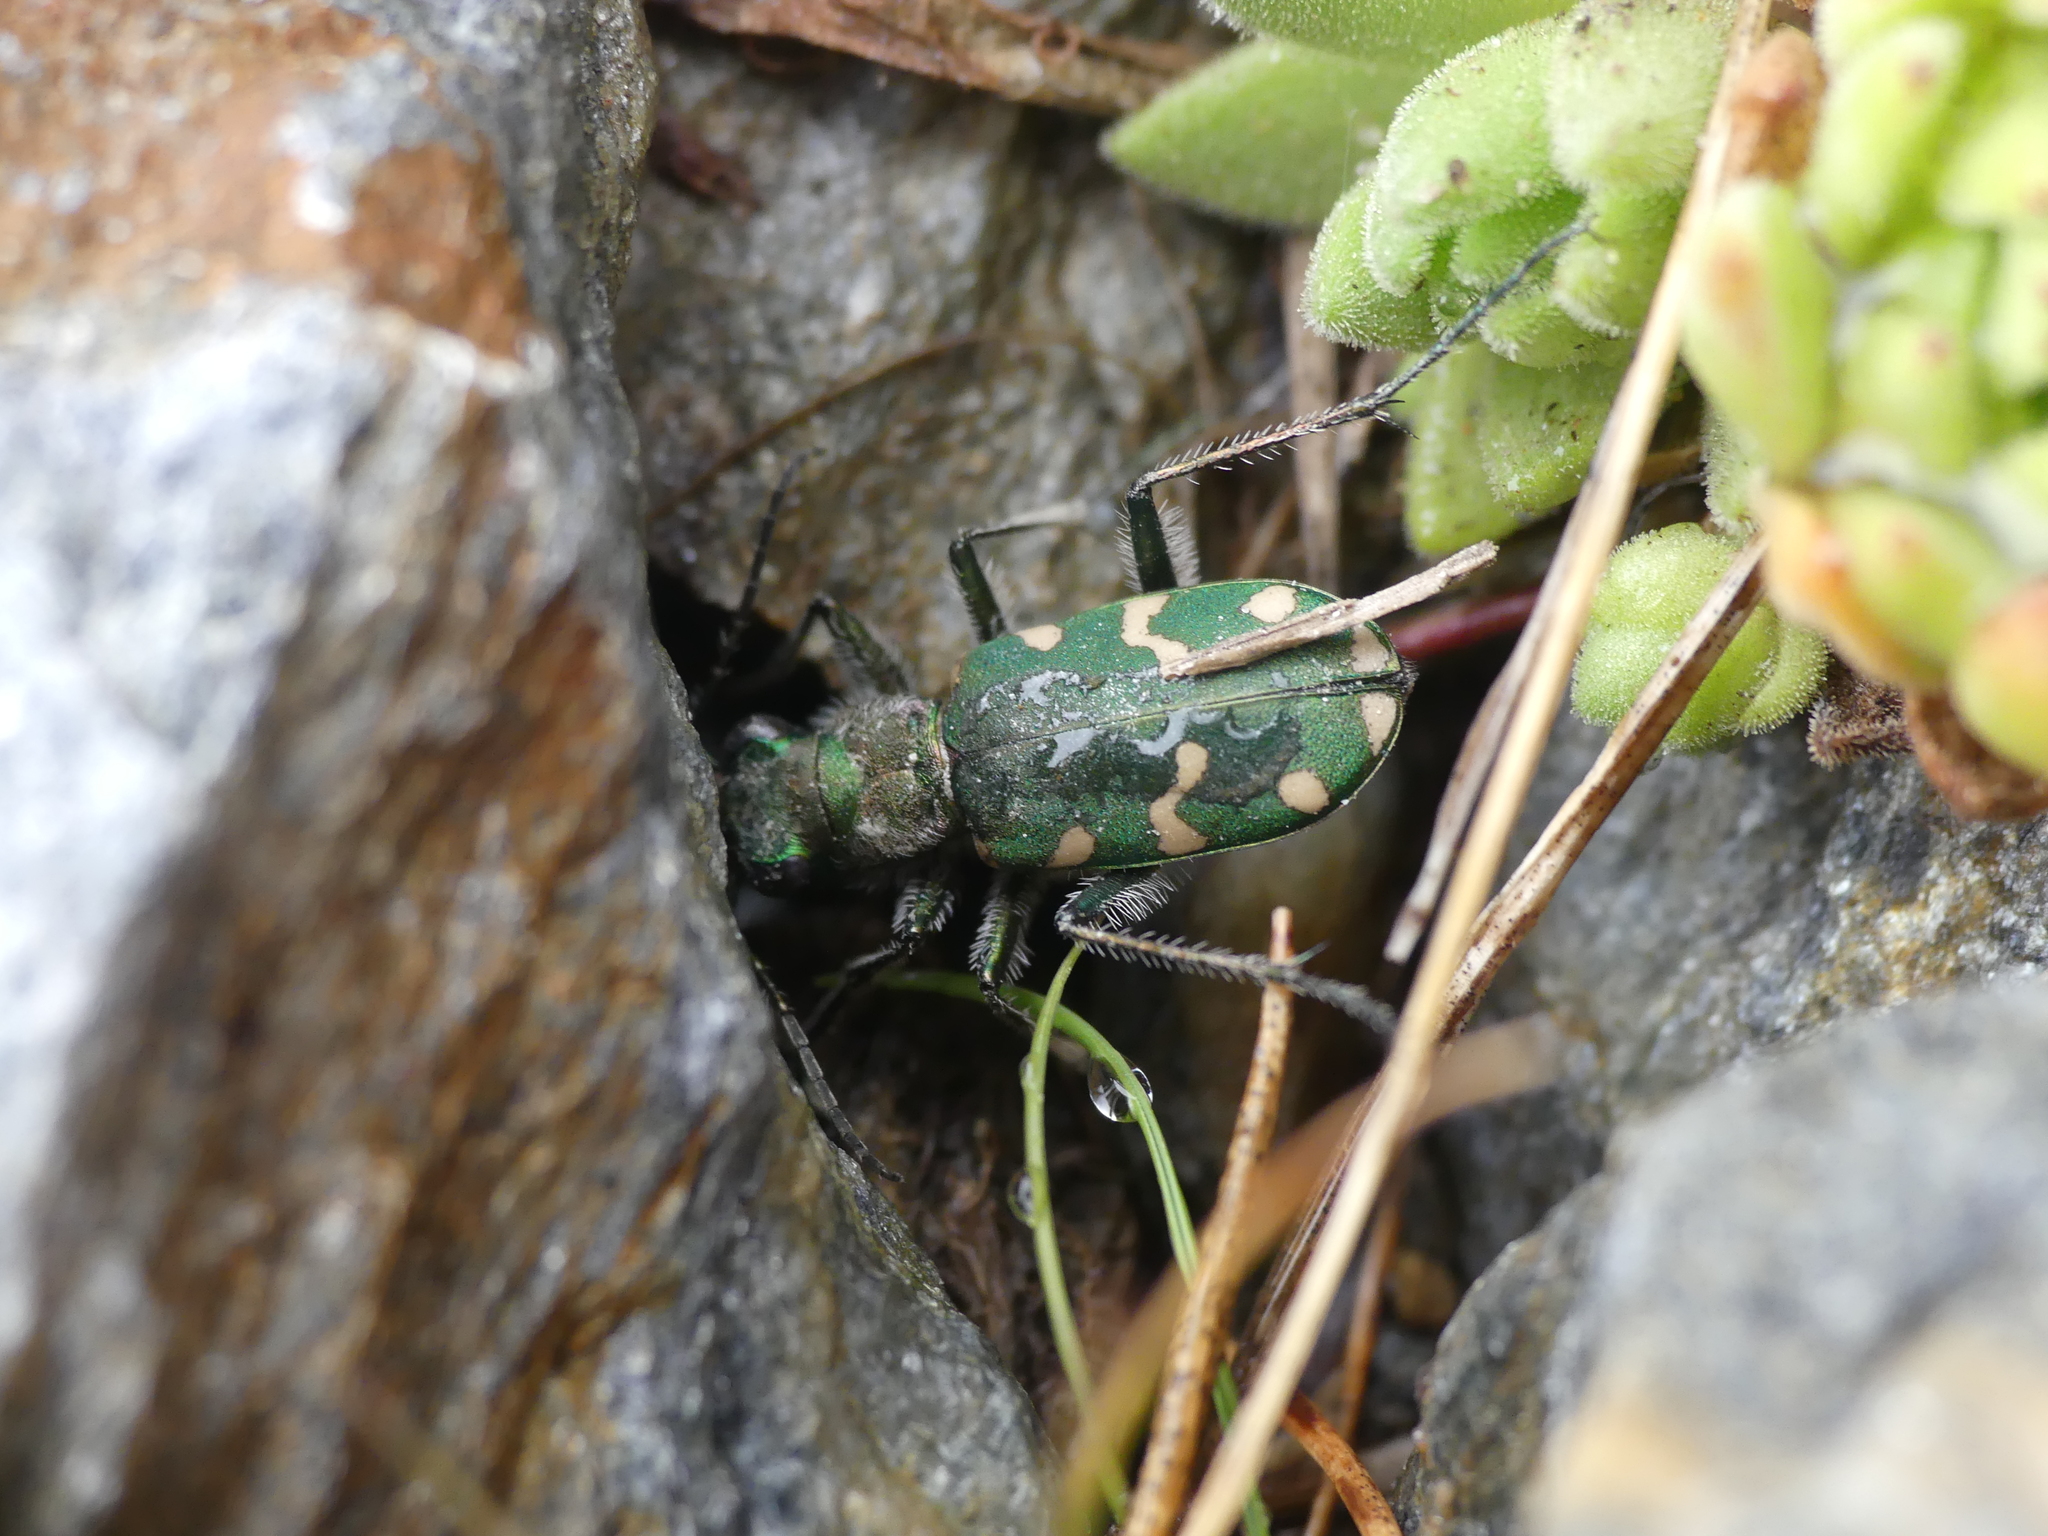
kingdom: Animalia
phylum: Arthropoda
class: Insecta
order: Coleoptera
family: Carabidae
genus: Cicindela
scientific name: Cicindela gallica
